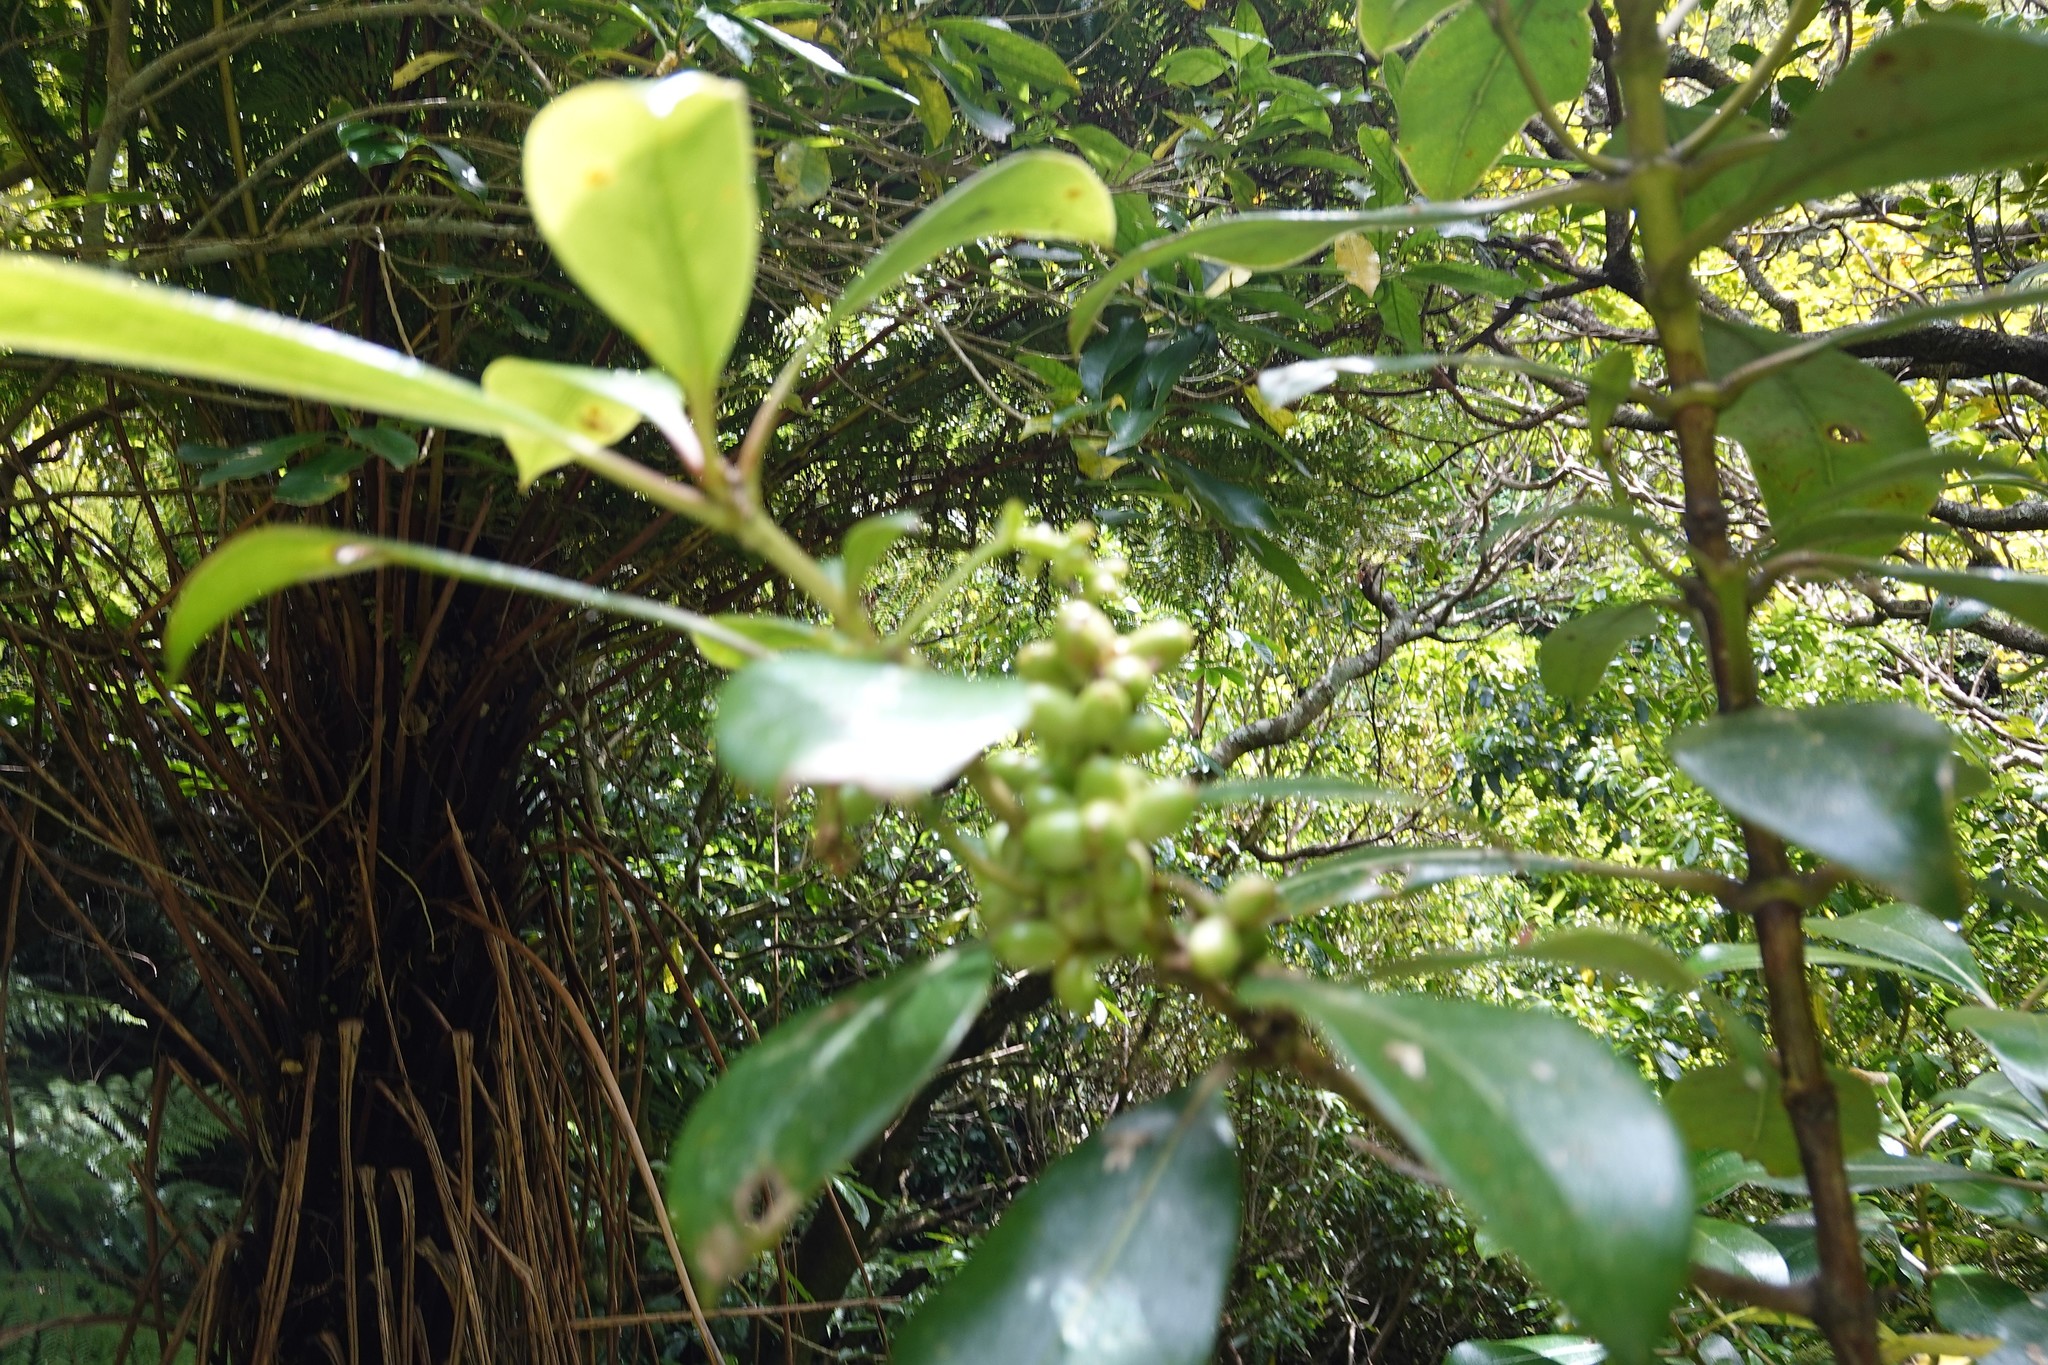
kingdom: Plantae
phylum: Tracheophyta
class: Magnoliopsida
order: Gentianales
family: Rubiaceae
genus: Coprosma
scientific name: Coprosma lucida
